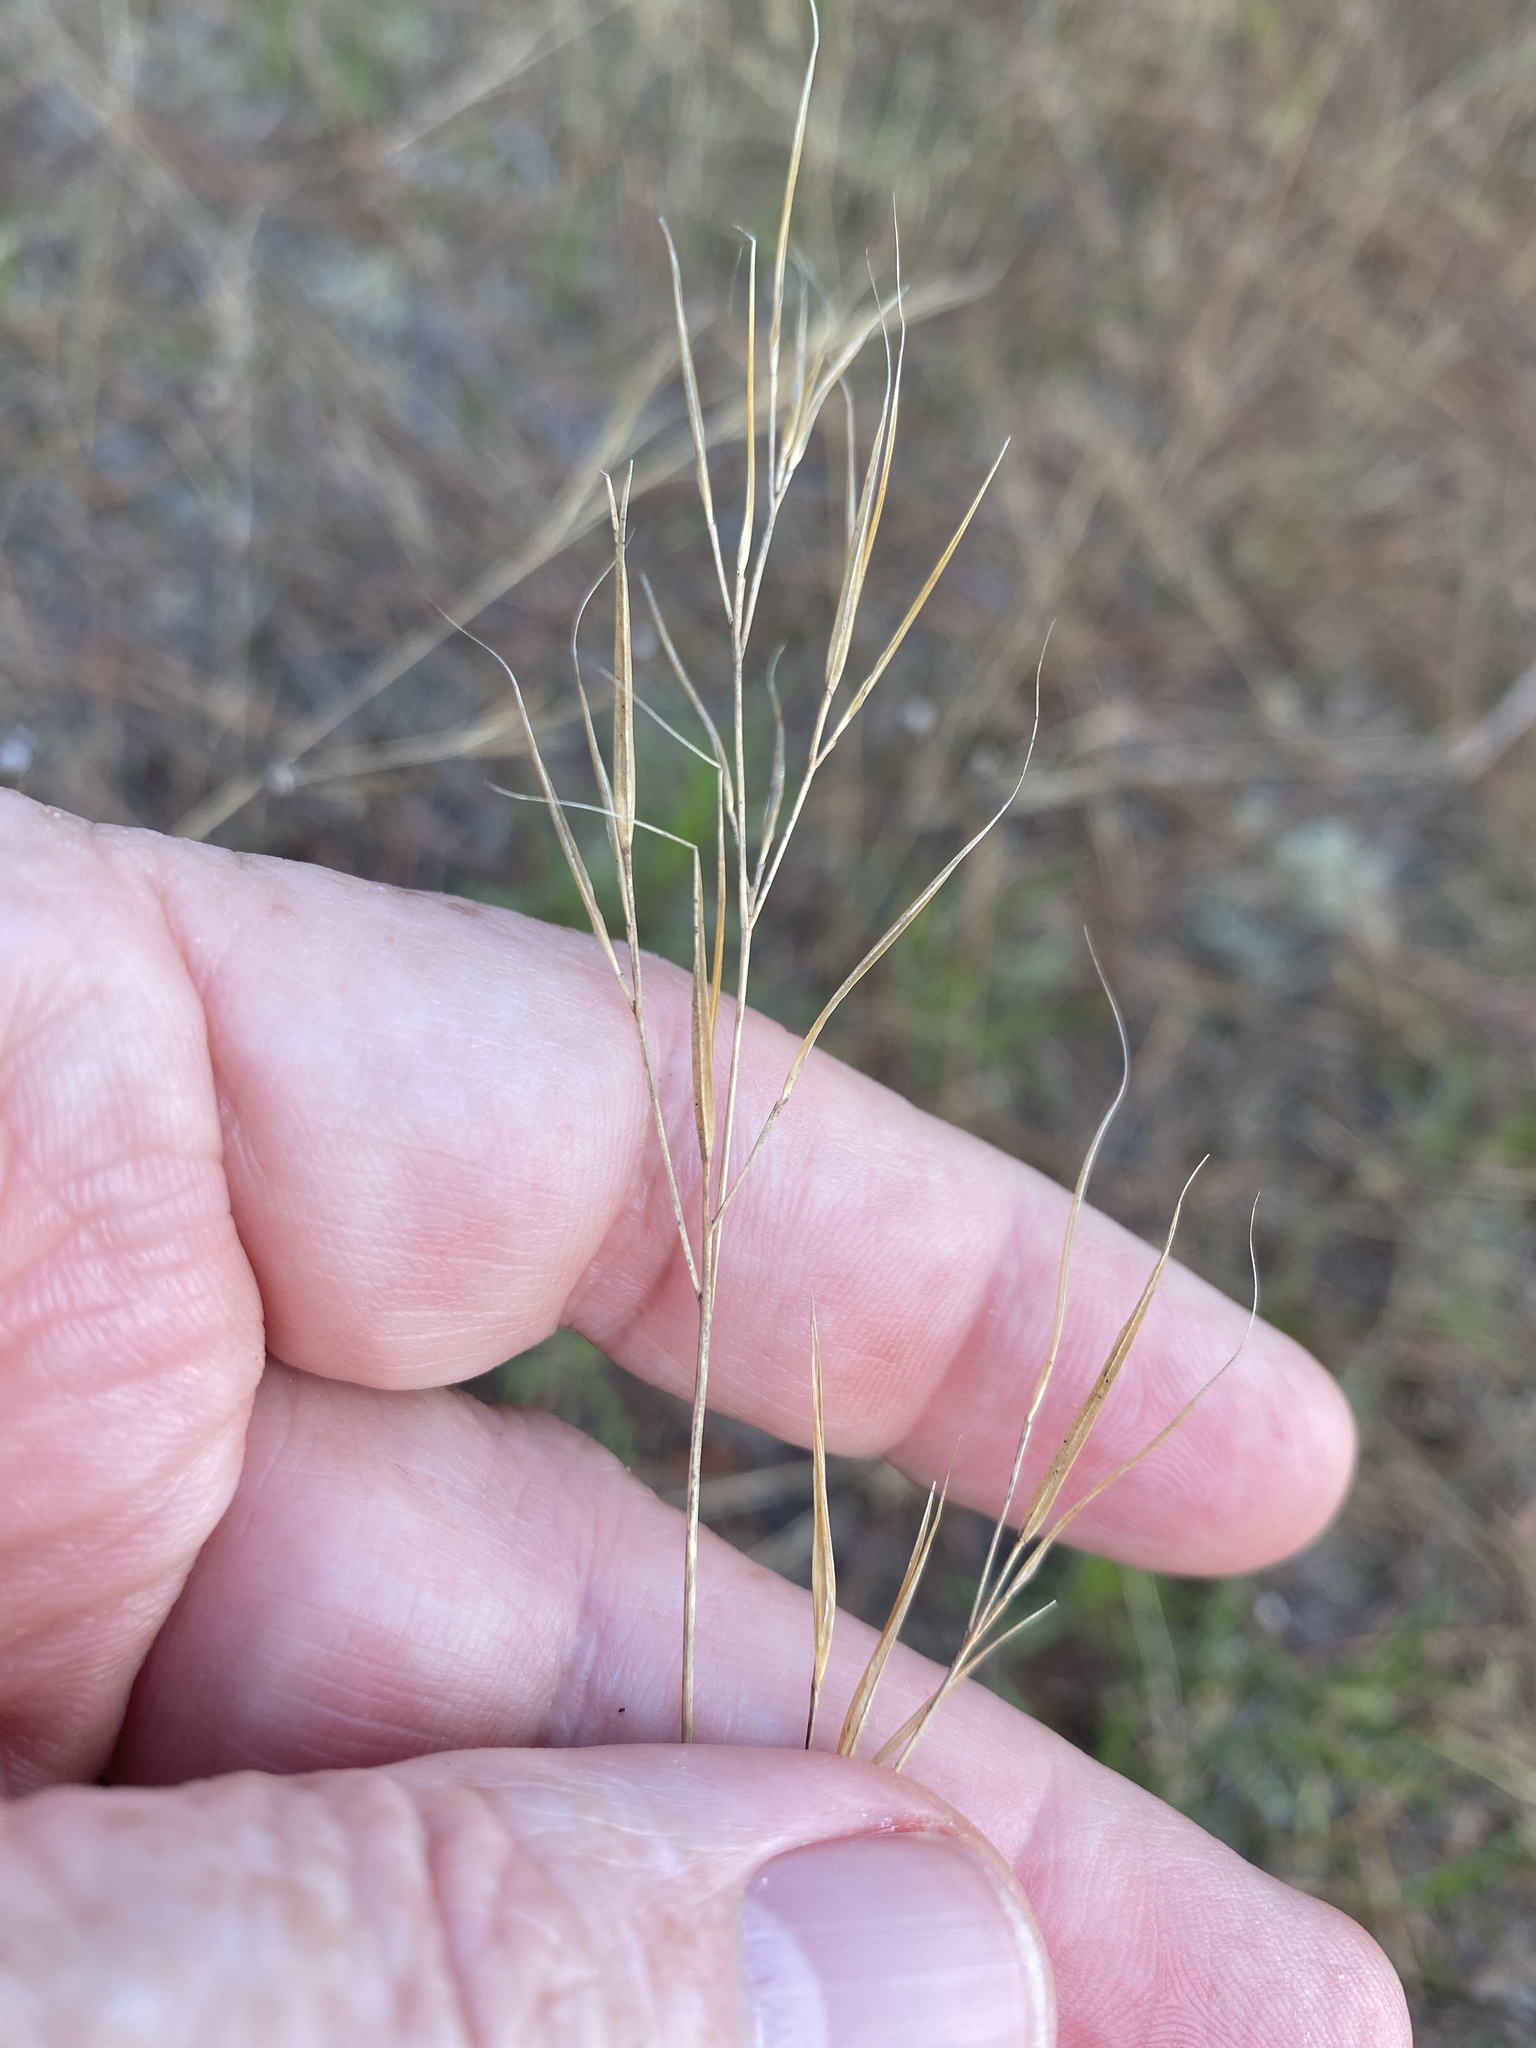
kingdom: Plantae
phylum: Tracheophyta
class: Liliopsida
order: Poales
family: Poaceae
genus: Aristida
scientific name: Aristida tuberculosa
